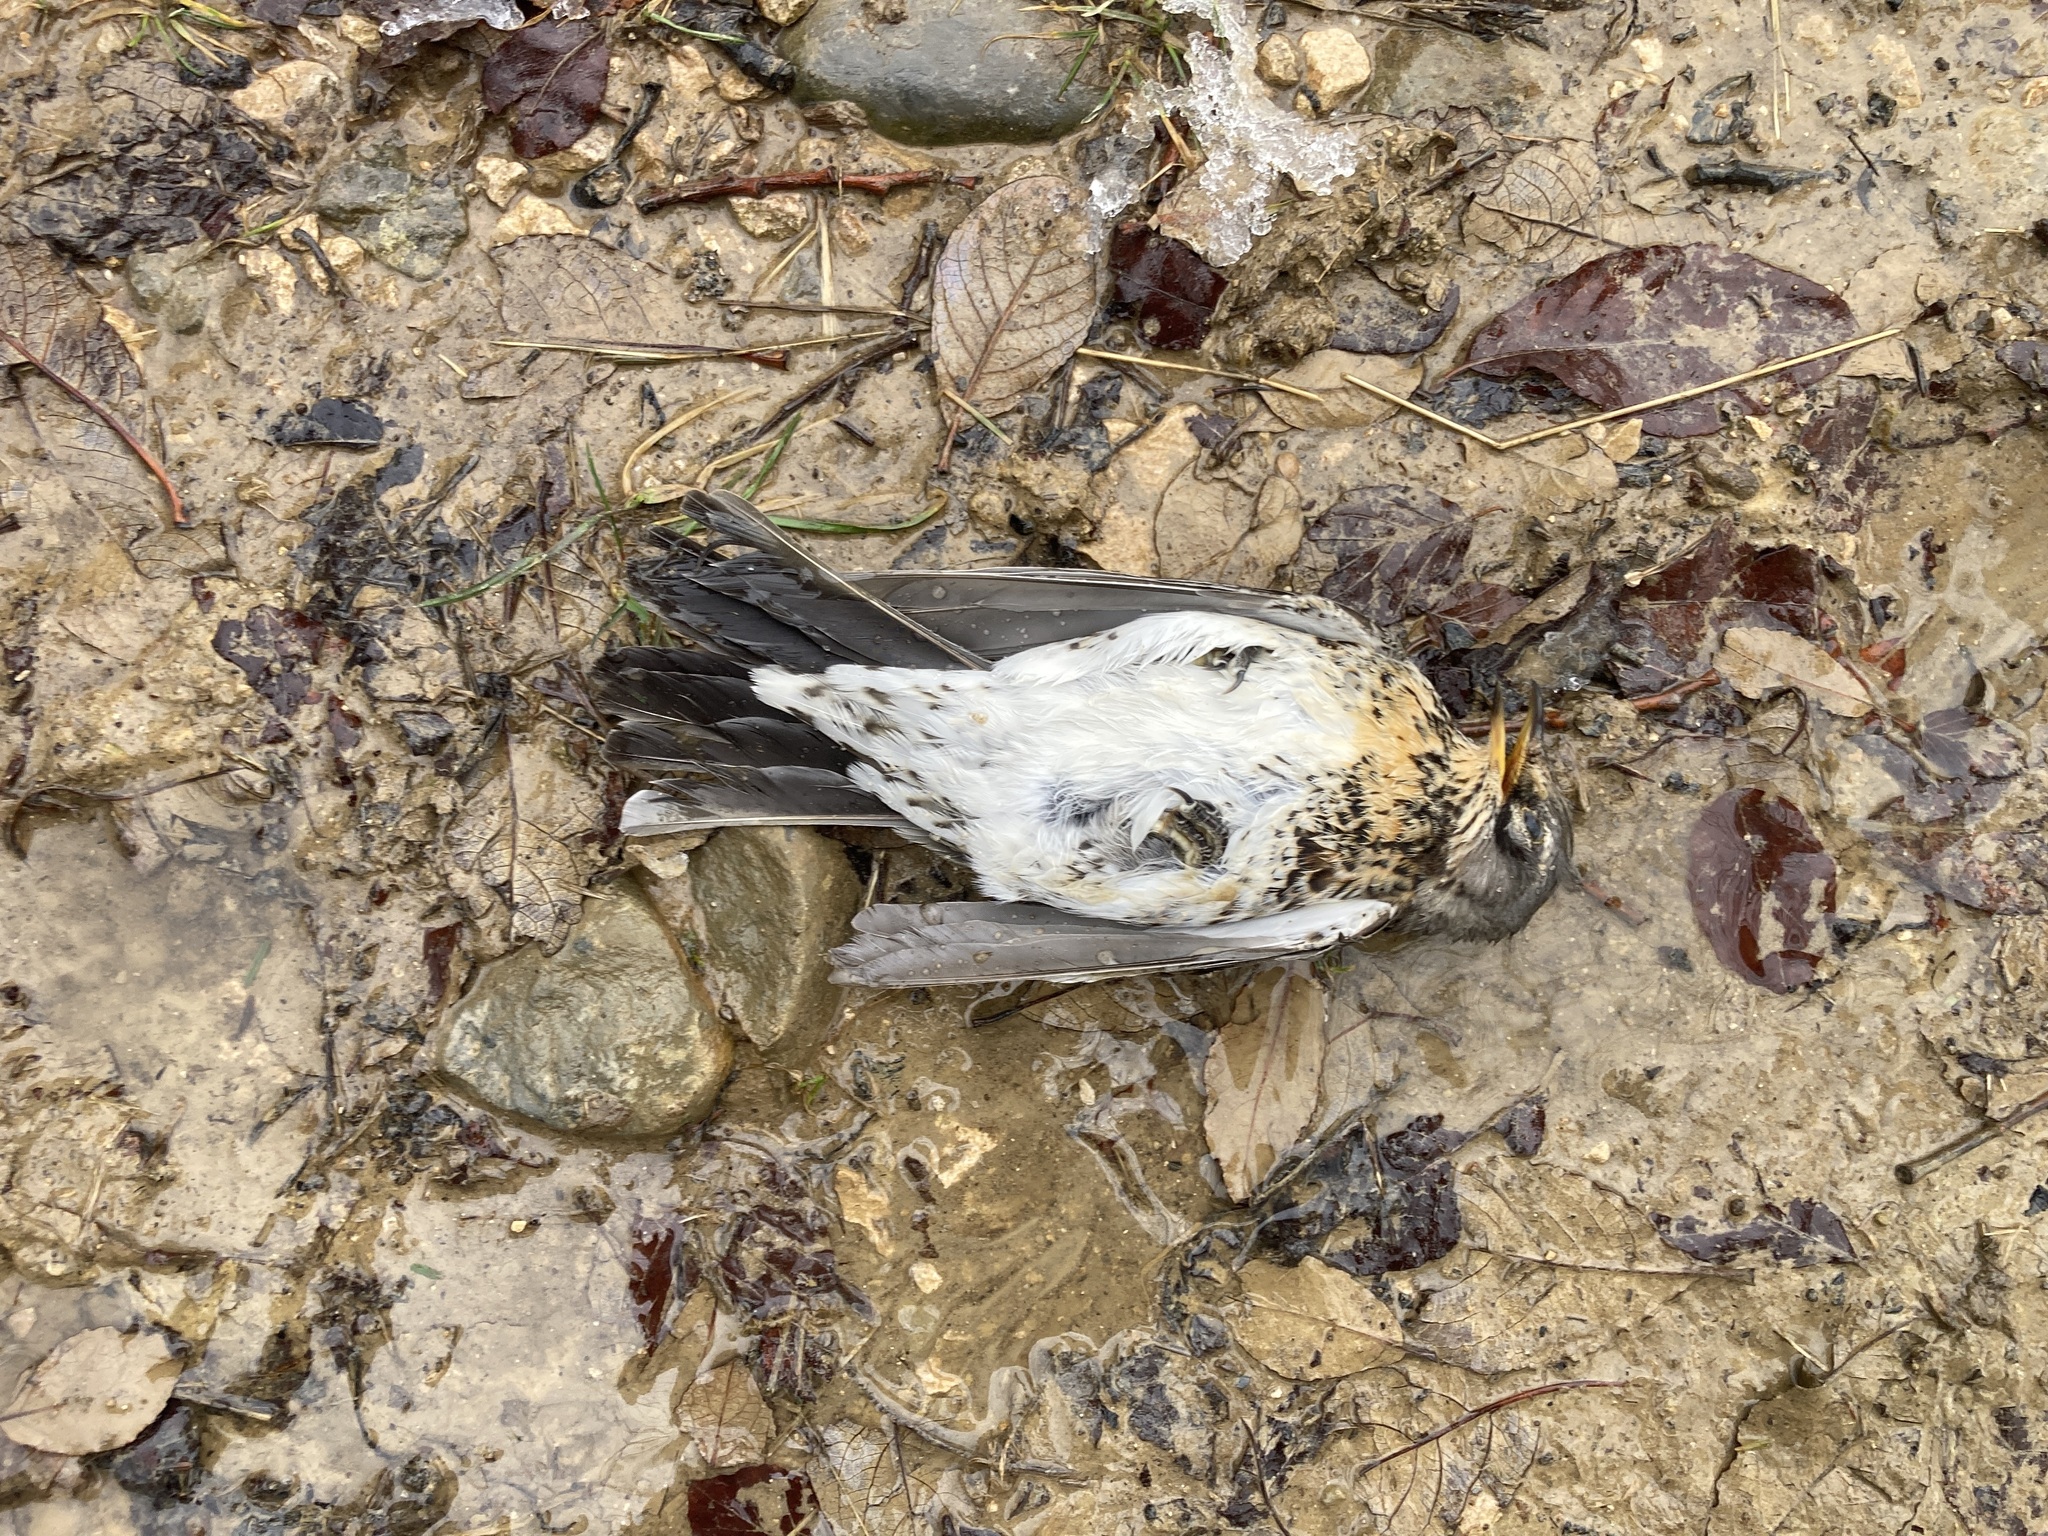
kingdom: Animalia
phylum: Chordata
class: Aves
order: Passeriformes
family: Turdidae
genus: Turdus
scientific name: Turdus pilaris
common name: Fieldfare
